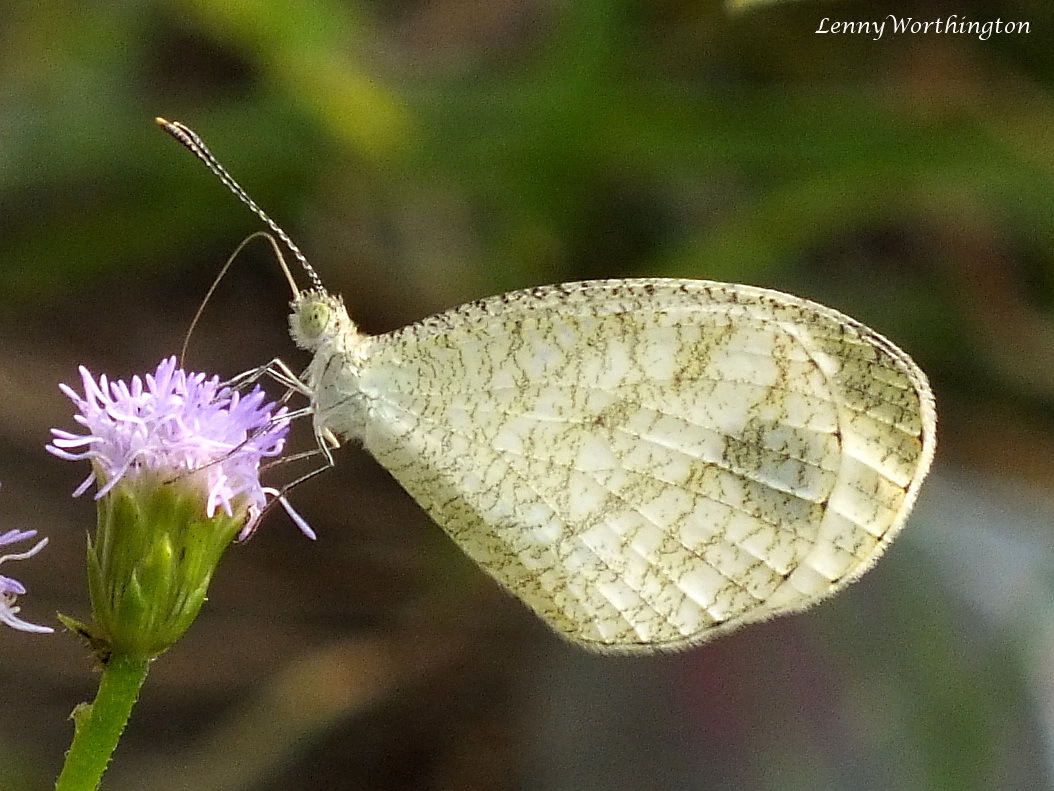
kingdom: Animalia
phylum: Arthropoda
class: Insecta
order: Lepidoptera
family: Pieridae
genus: Leptosia
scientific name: Leptosia nina
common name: Psyche
